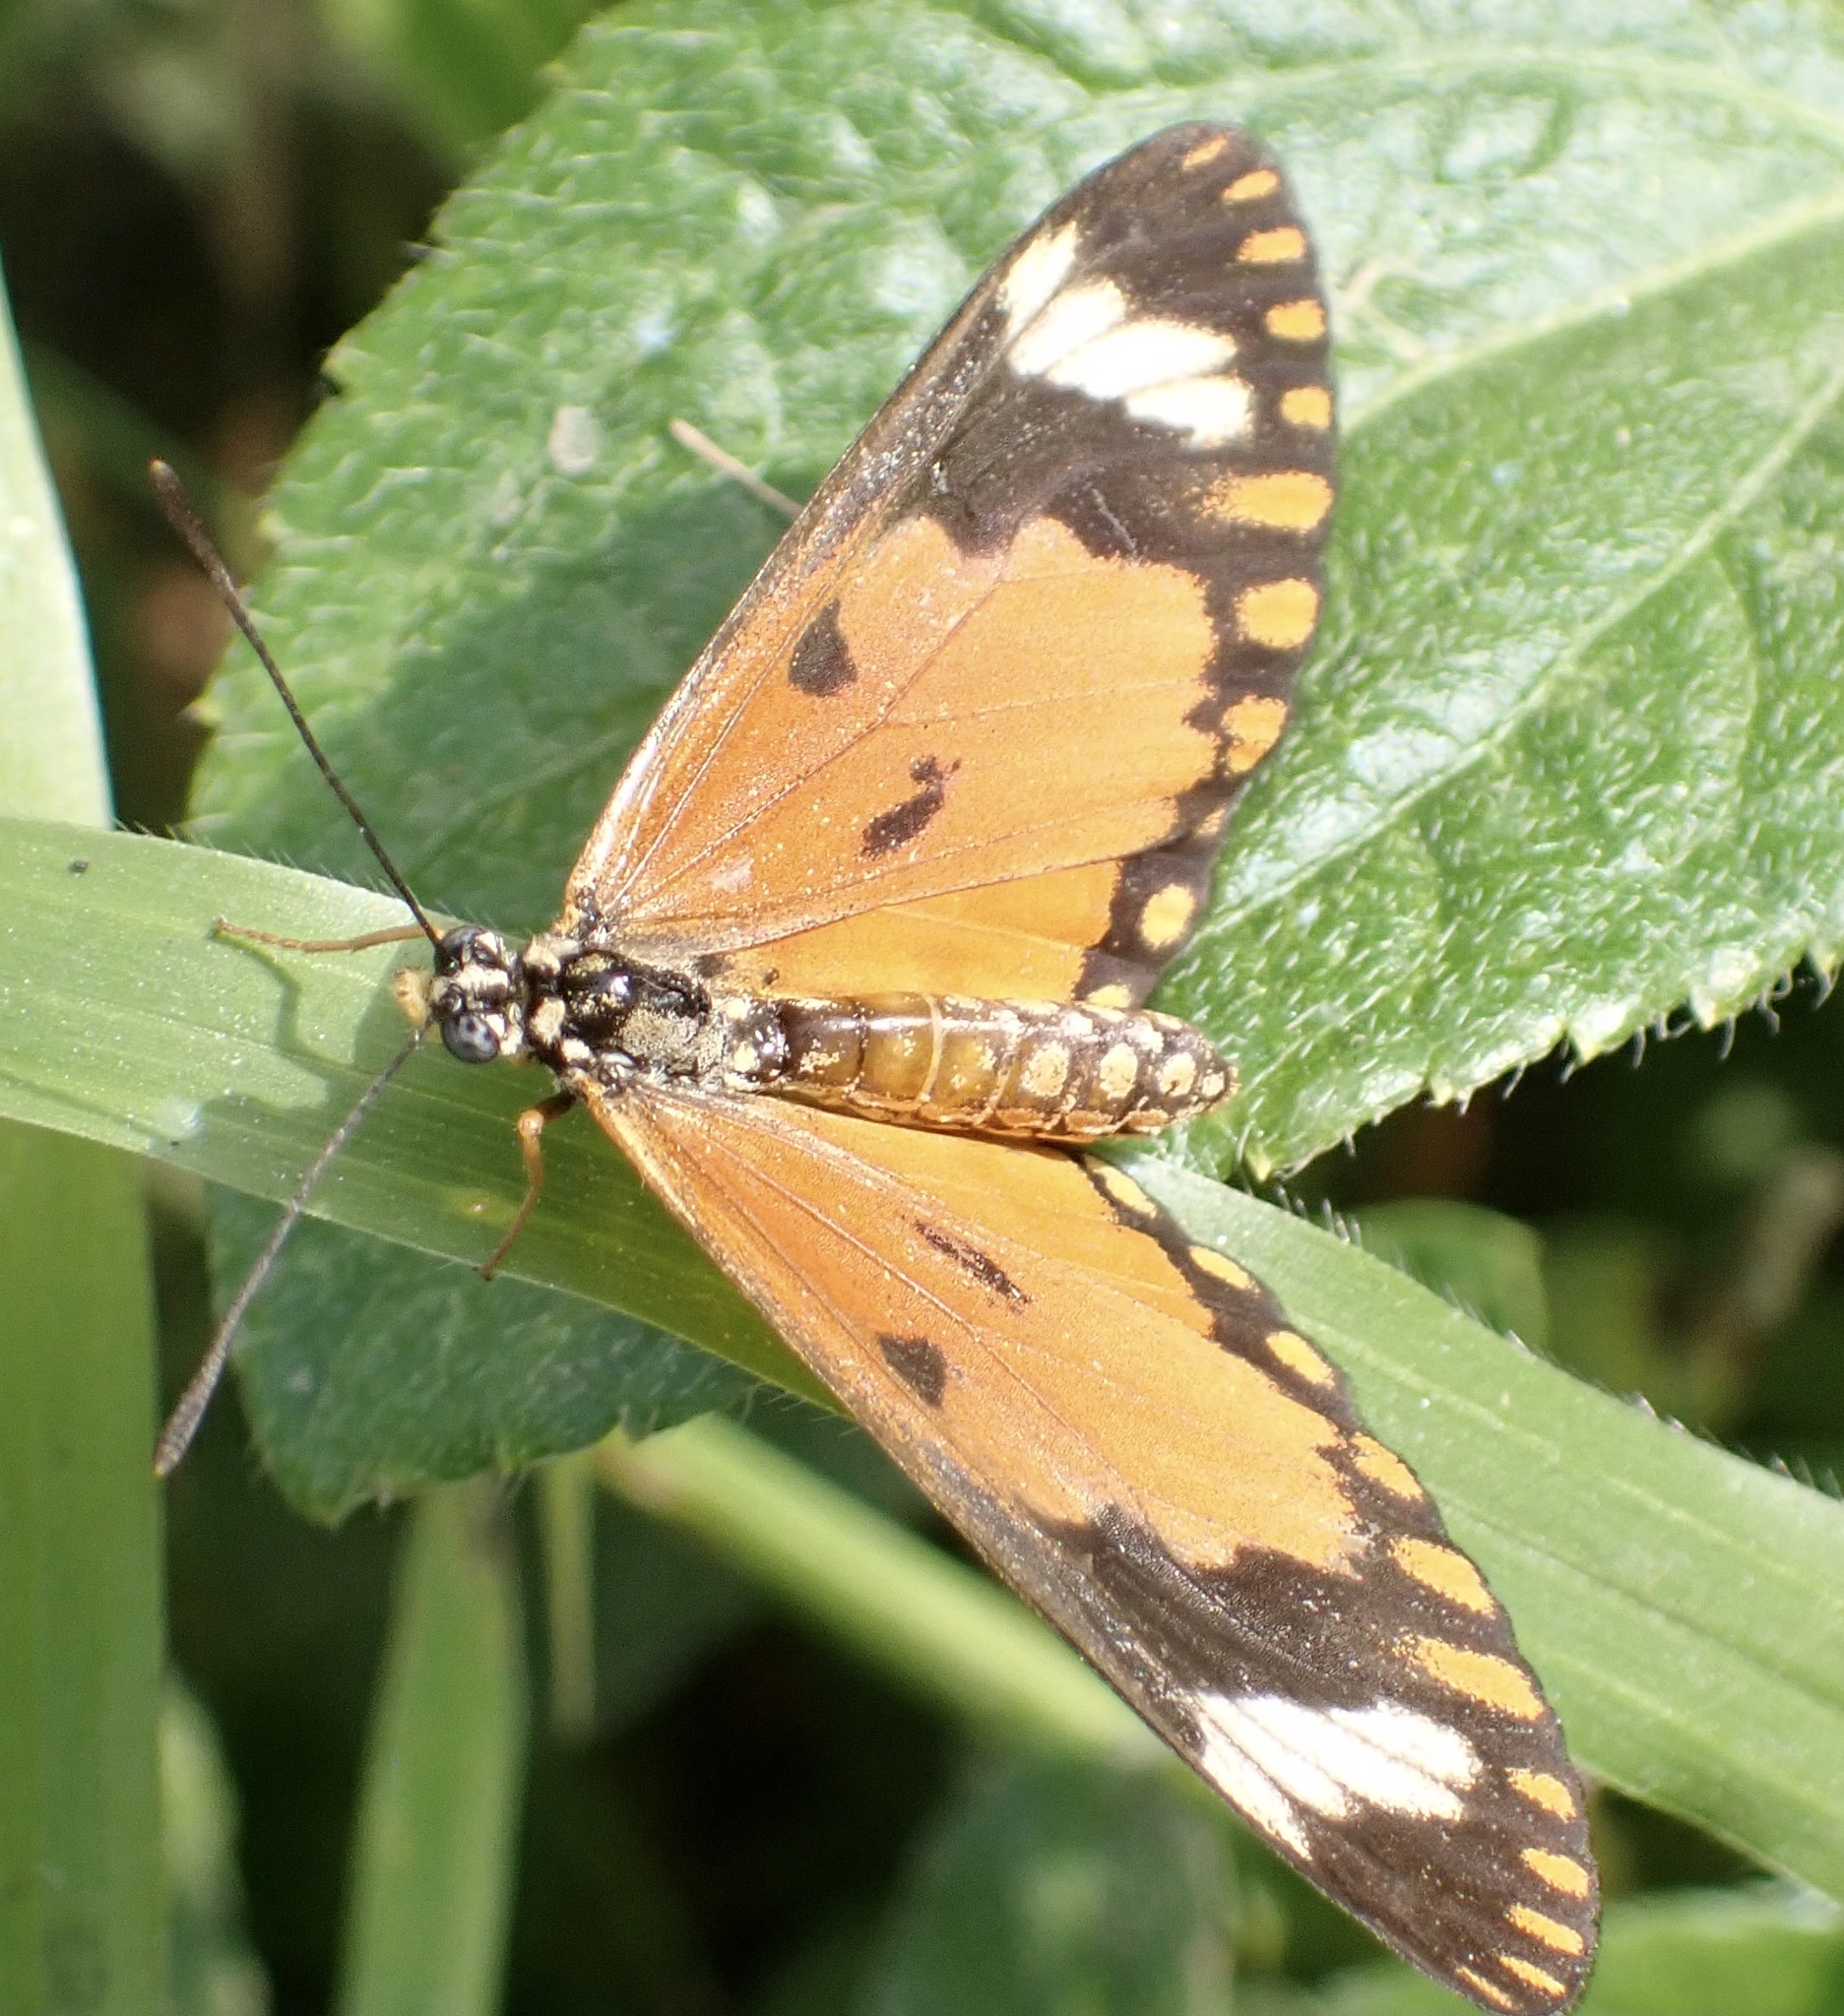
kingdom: Animalia
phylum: Arthropoda
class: Insecta
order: Lepidoptera
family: Nymphalidae
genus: Acraea
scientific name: Acraea Telchinia serena
